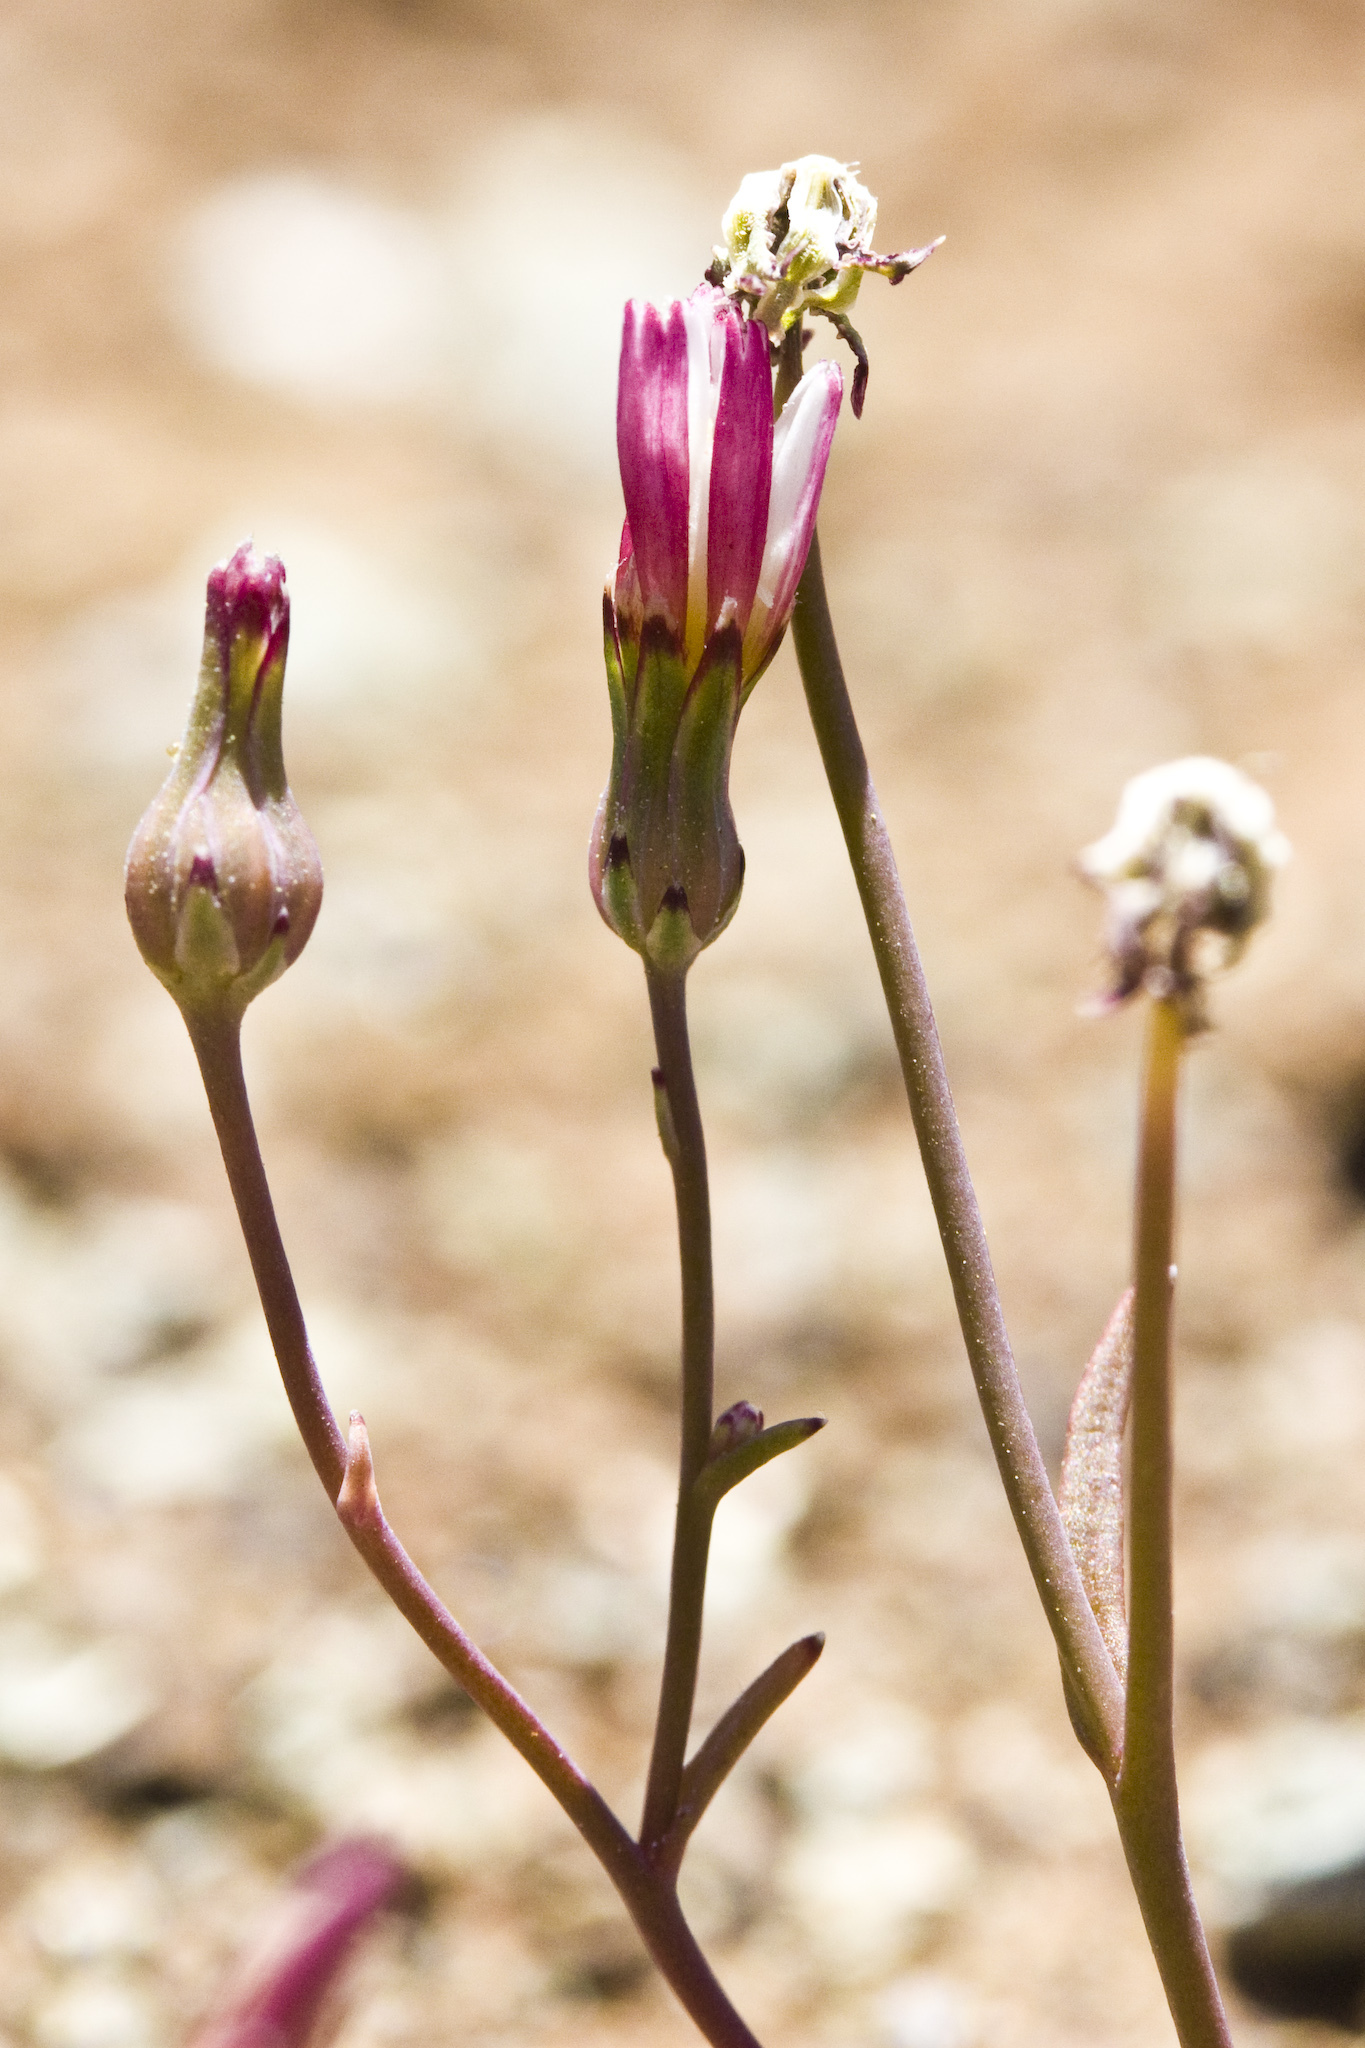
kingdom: Plantae
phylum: Tracheophyta
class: Magnoliopsida
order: Asterales
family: Asteraceae
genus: Malacothrix
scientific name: Malacothrix floccifera
